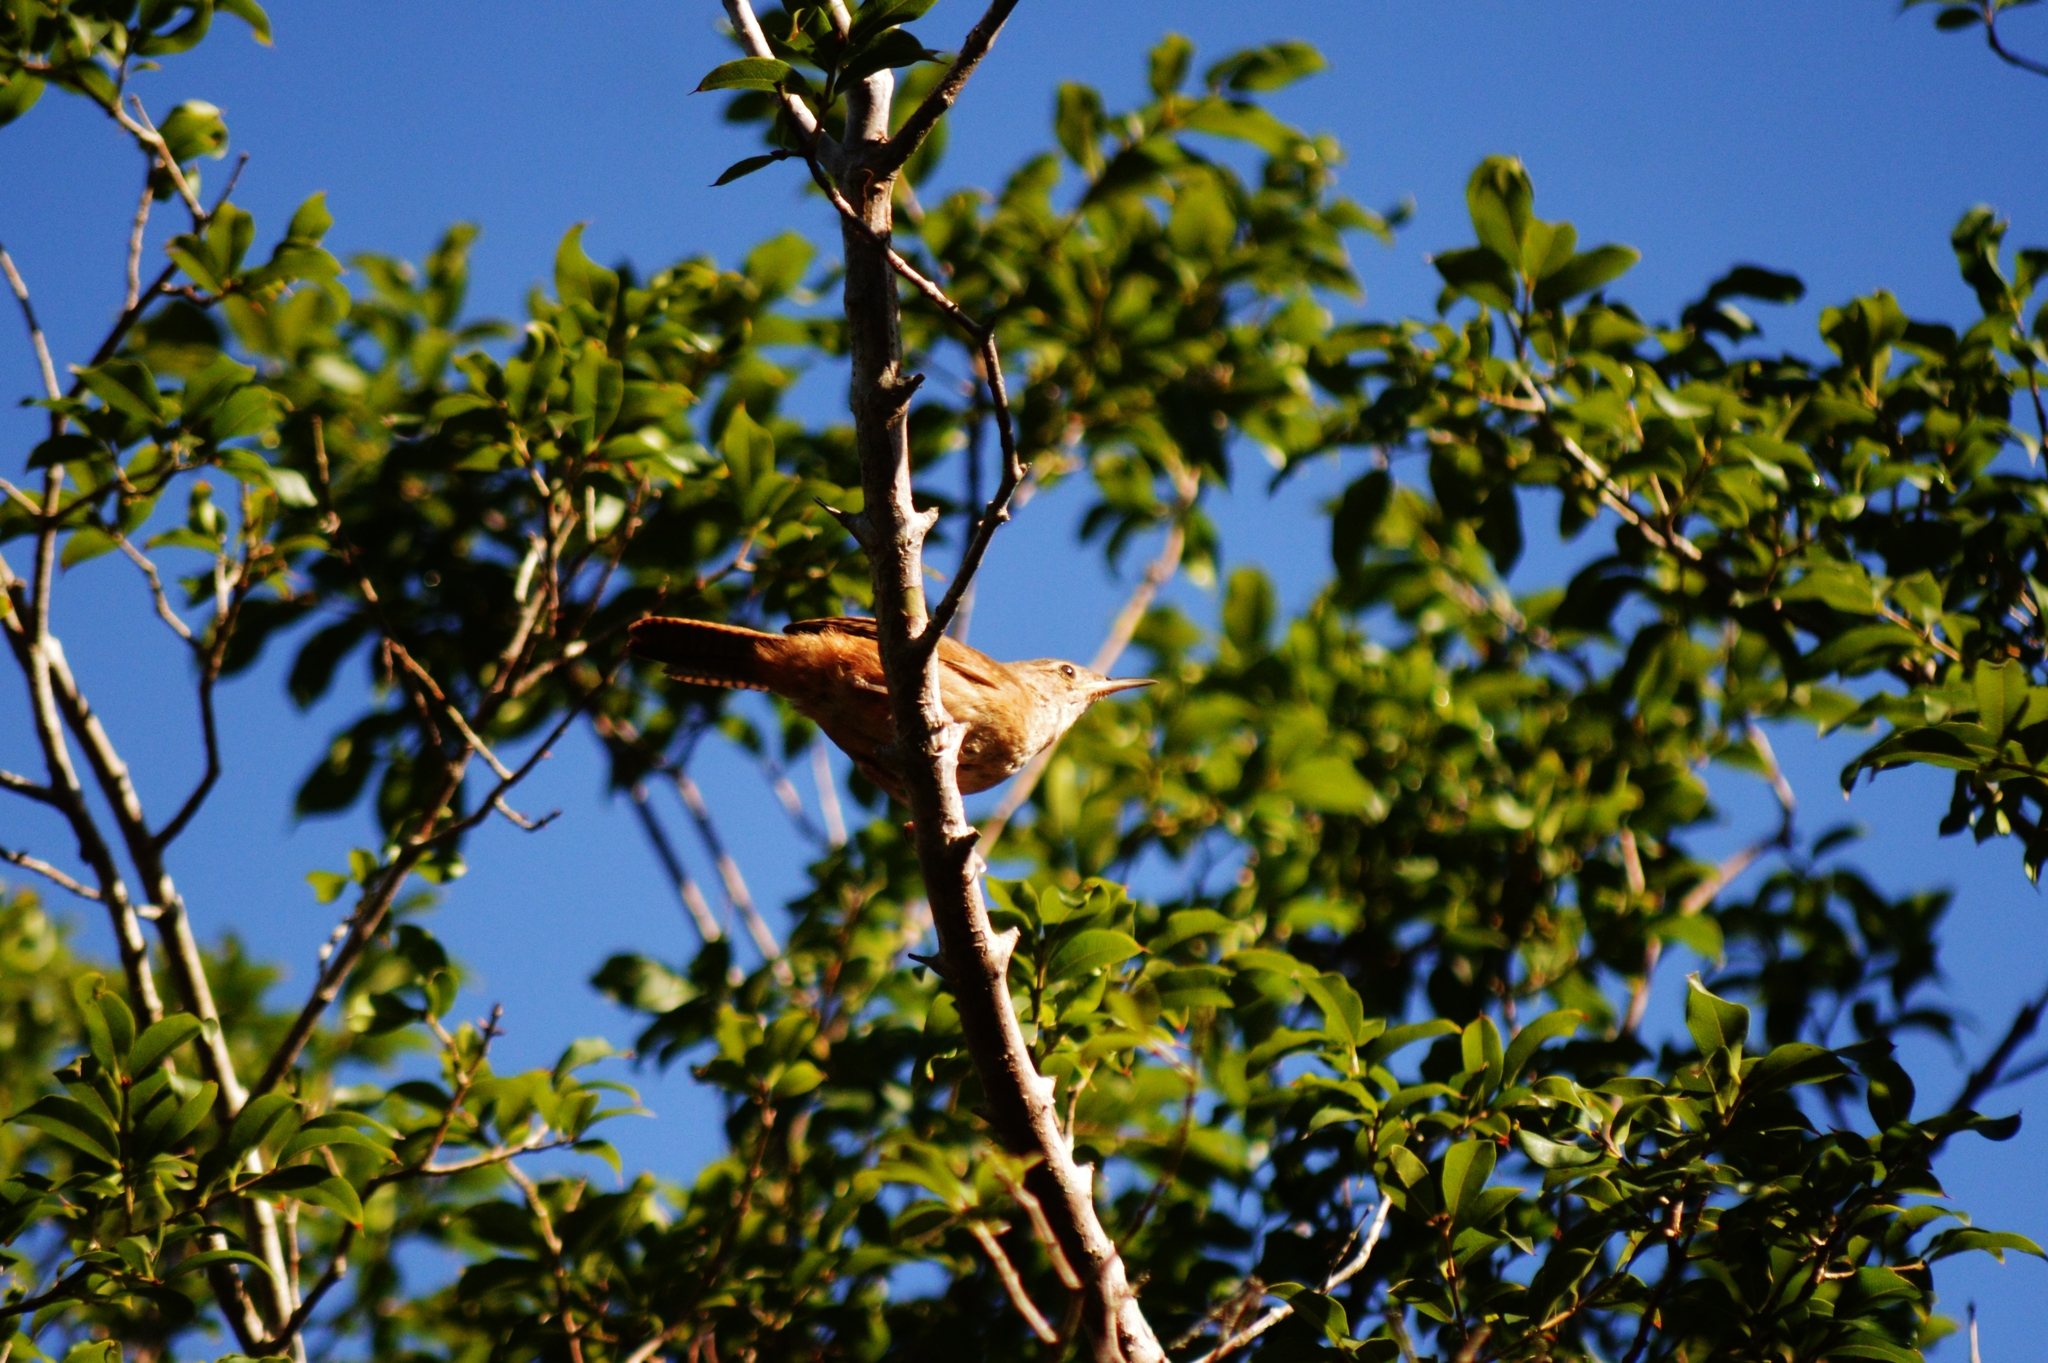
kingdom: Animalia
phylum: Chordata
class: Aves
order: Passeriformes
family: Troglodytidae
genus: Troglodytes
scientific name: Troglodytes aedon
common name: House wren
